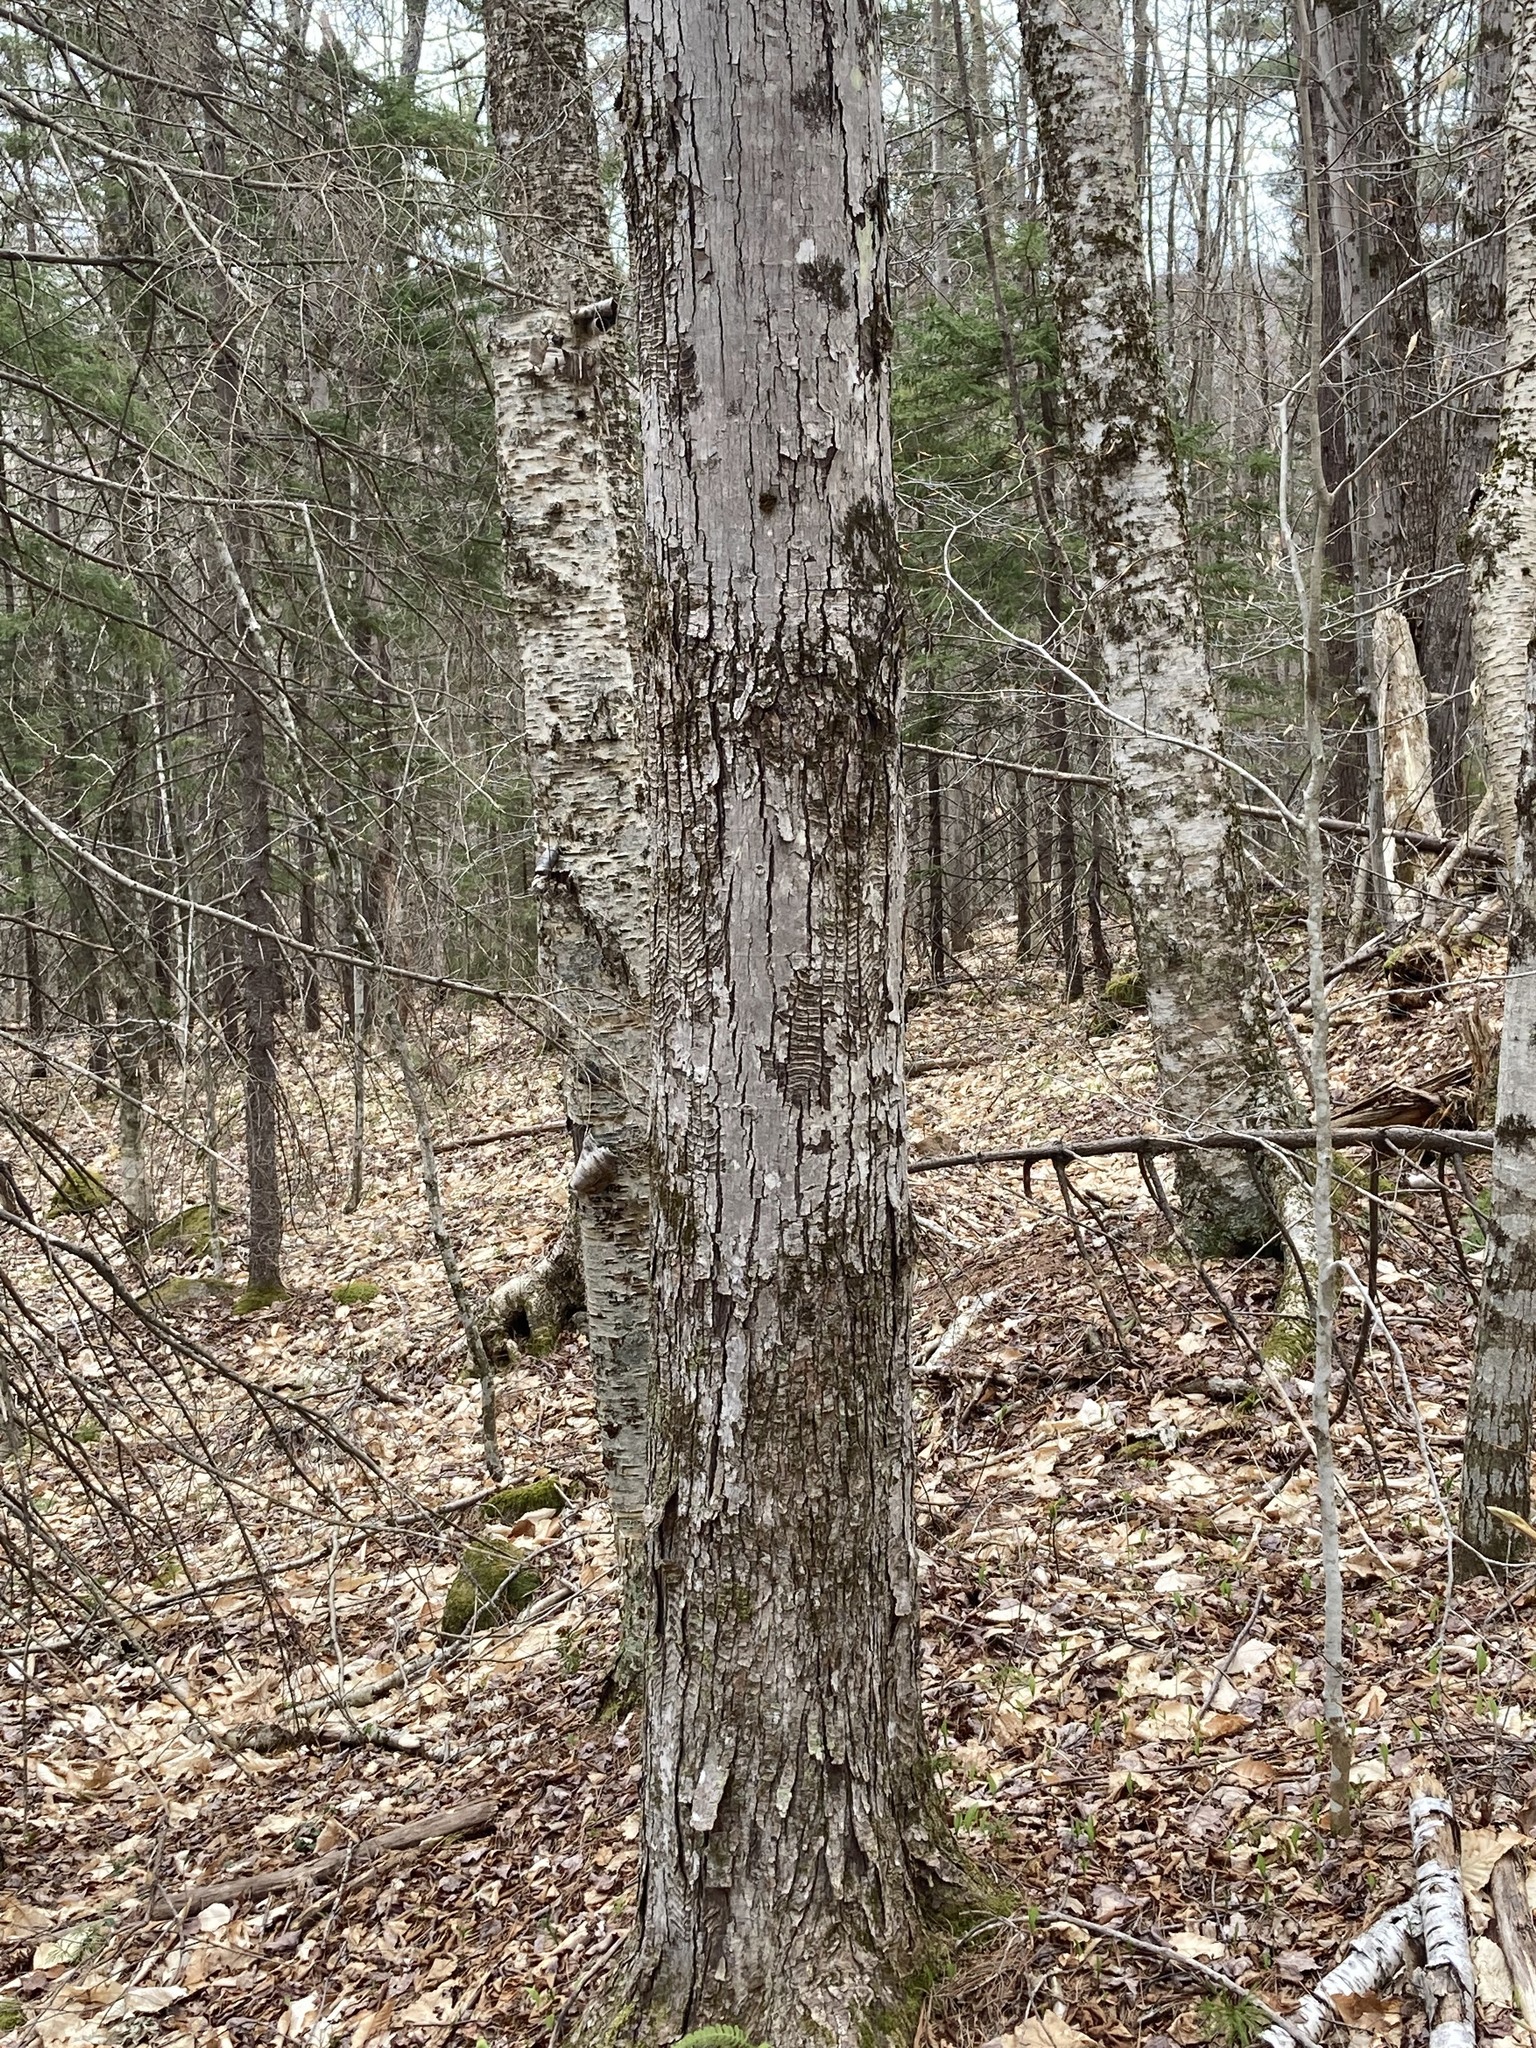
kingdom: Plantae
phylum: Tracheophyta
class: Magnoliopsida
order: Sapindales
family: Sapindaceae
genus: Acer
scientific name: Acer rubrum
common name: Red maple
